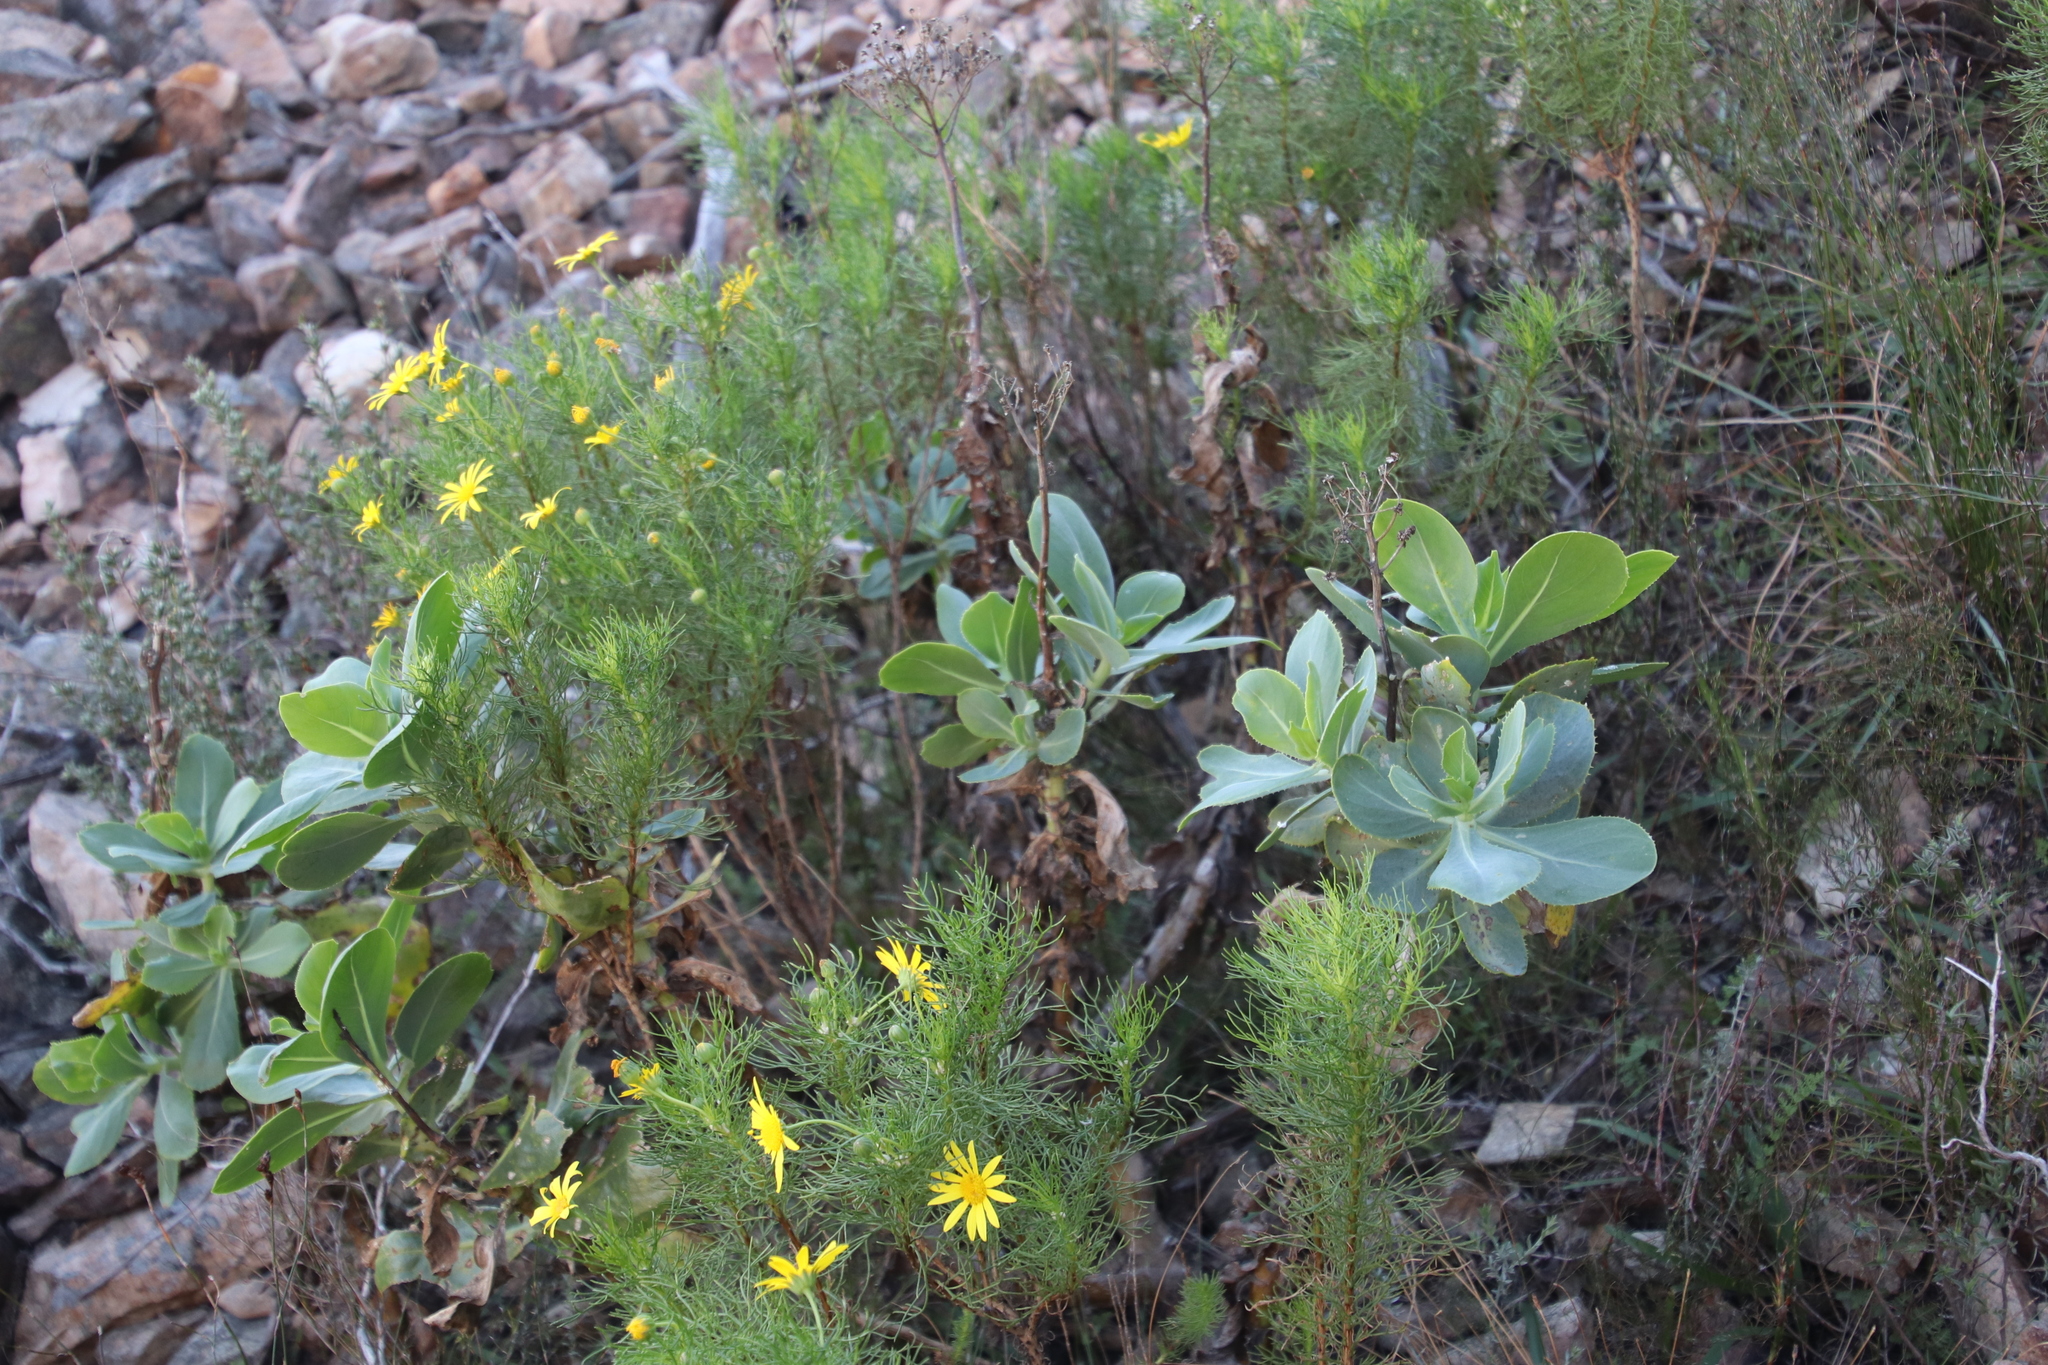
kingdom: Plantae
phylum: Tracheophyta
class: Magnoliopsida
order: Asterales
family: Asteraceae
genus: Othonna
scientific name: Othonna parviflora
